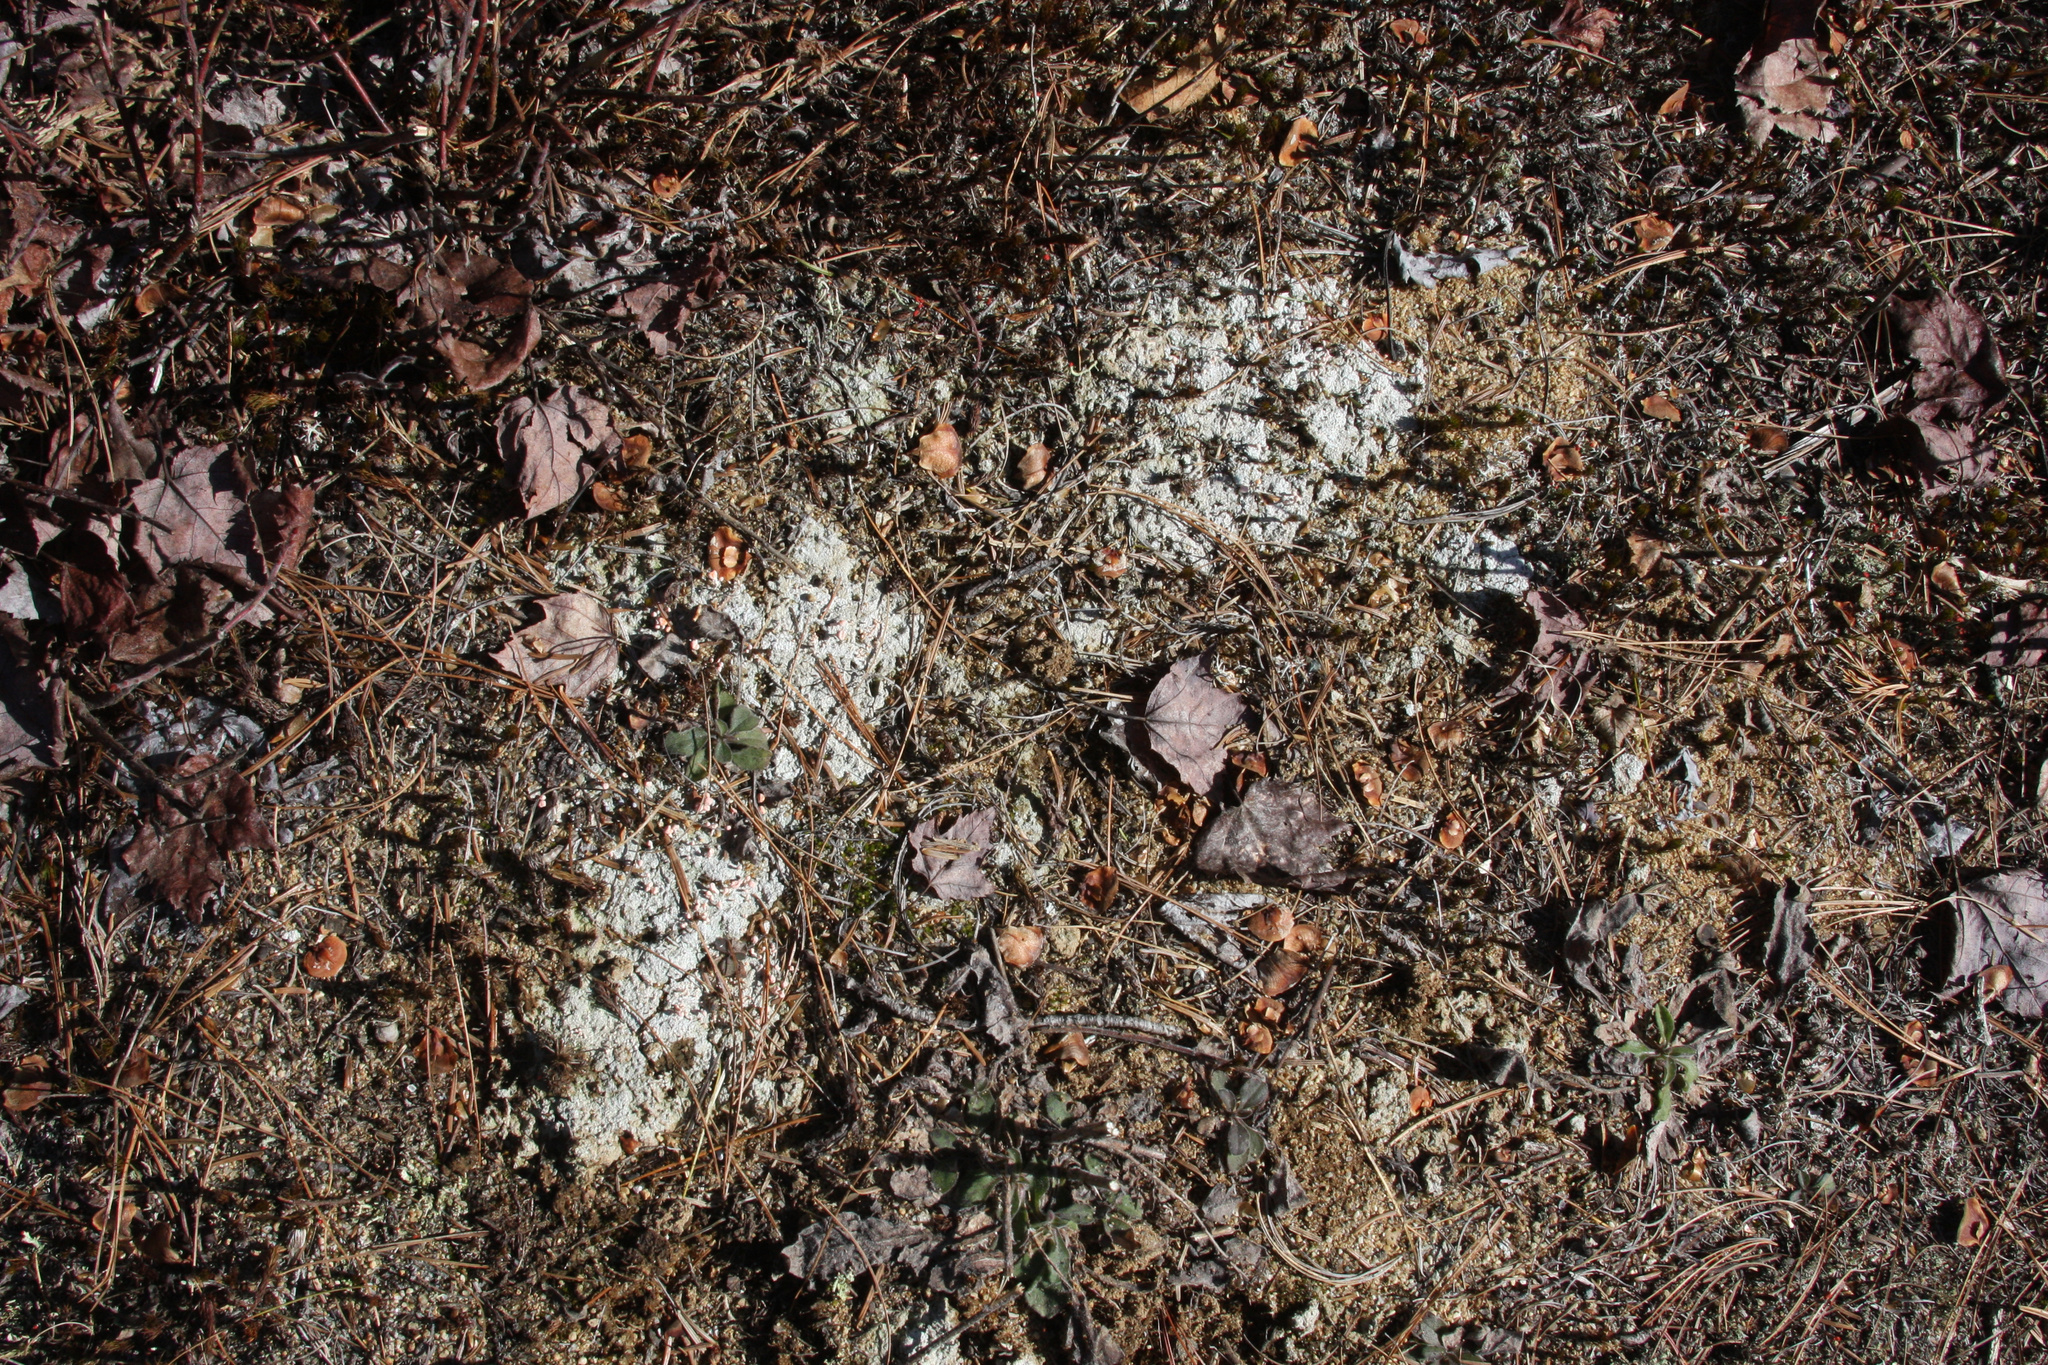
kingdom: Fungi
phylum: Ascomycota
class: Lecanoromycetes
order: Pertusariales
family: Icmadophilaceae
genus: Dibaeis
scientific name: Dibaeis baeomyces
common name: Pink earth lichen
